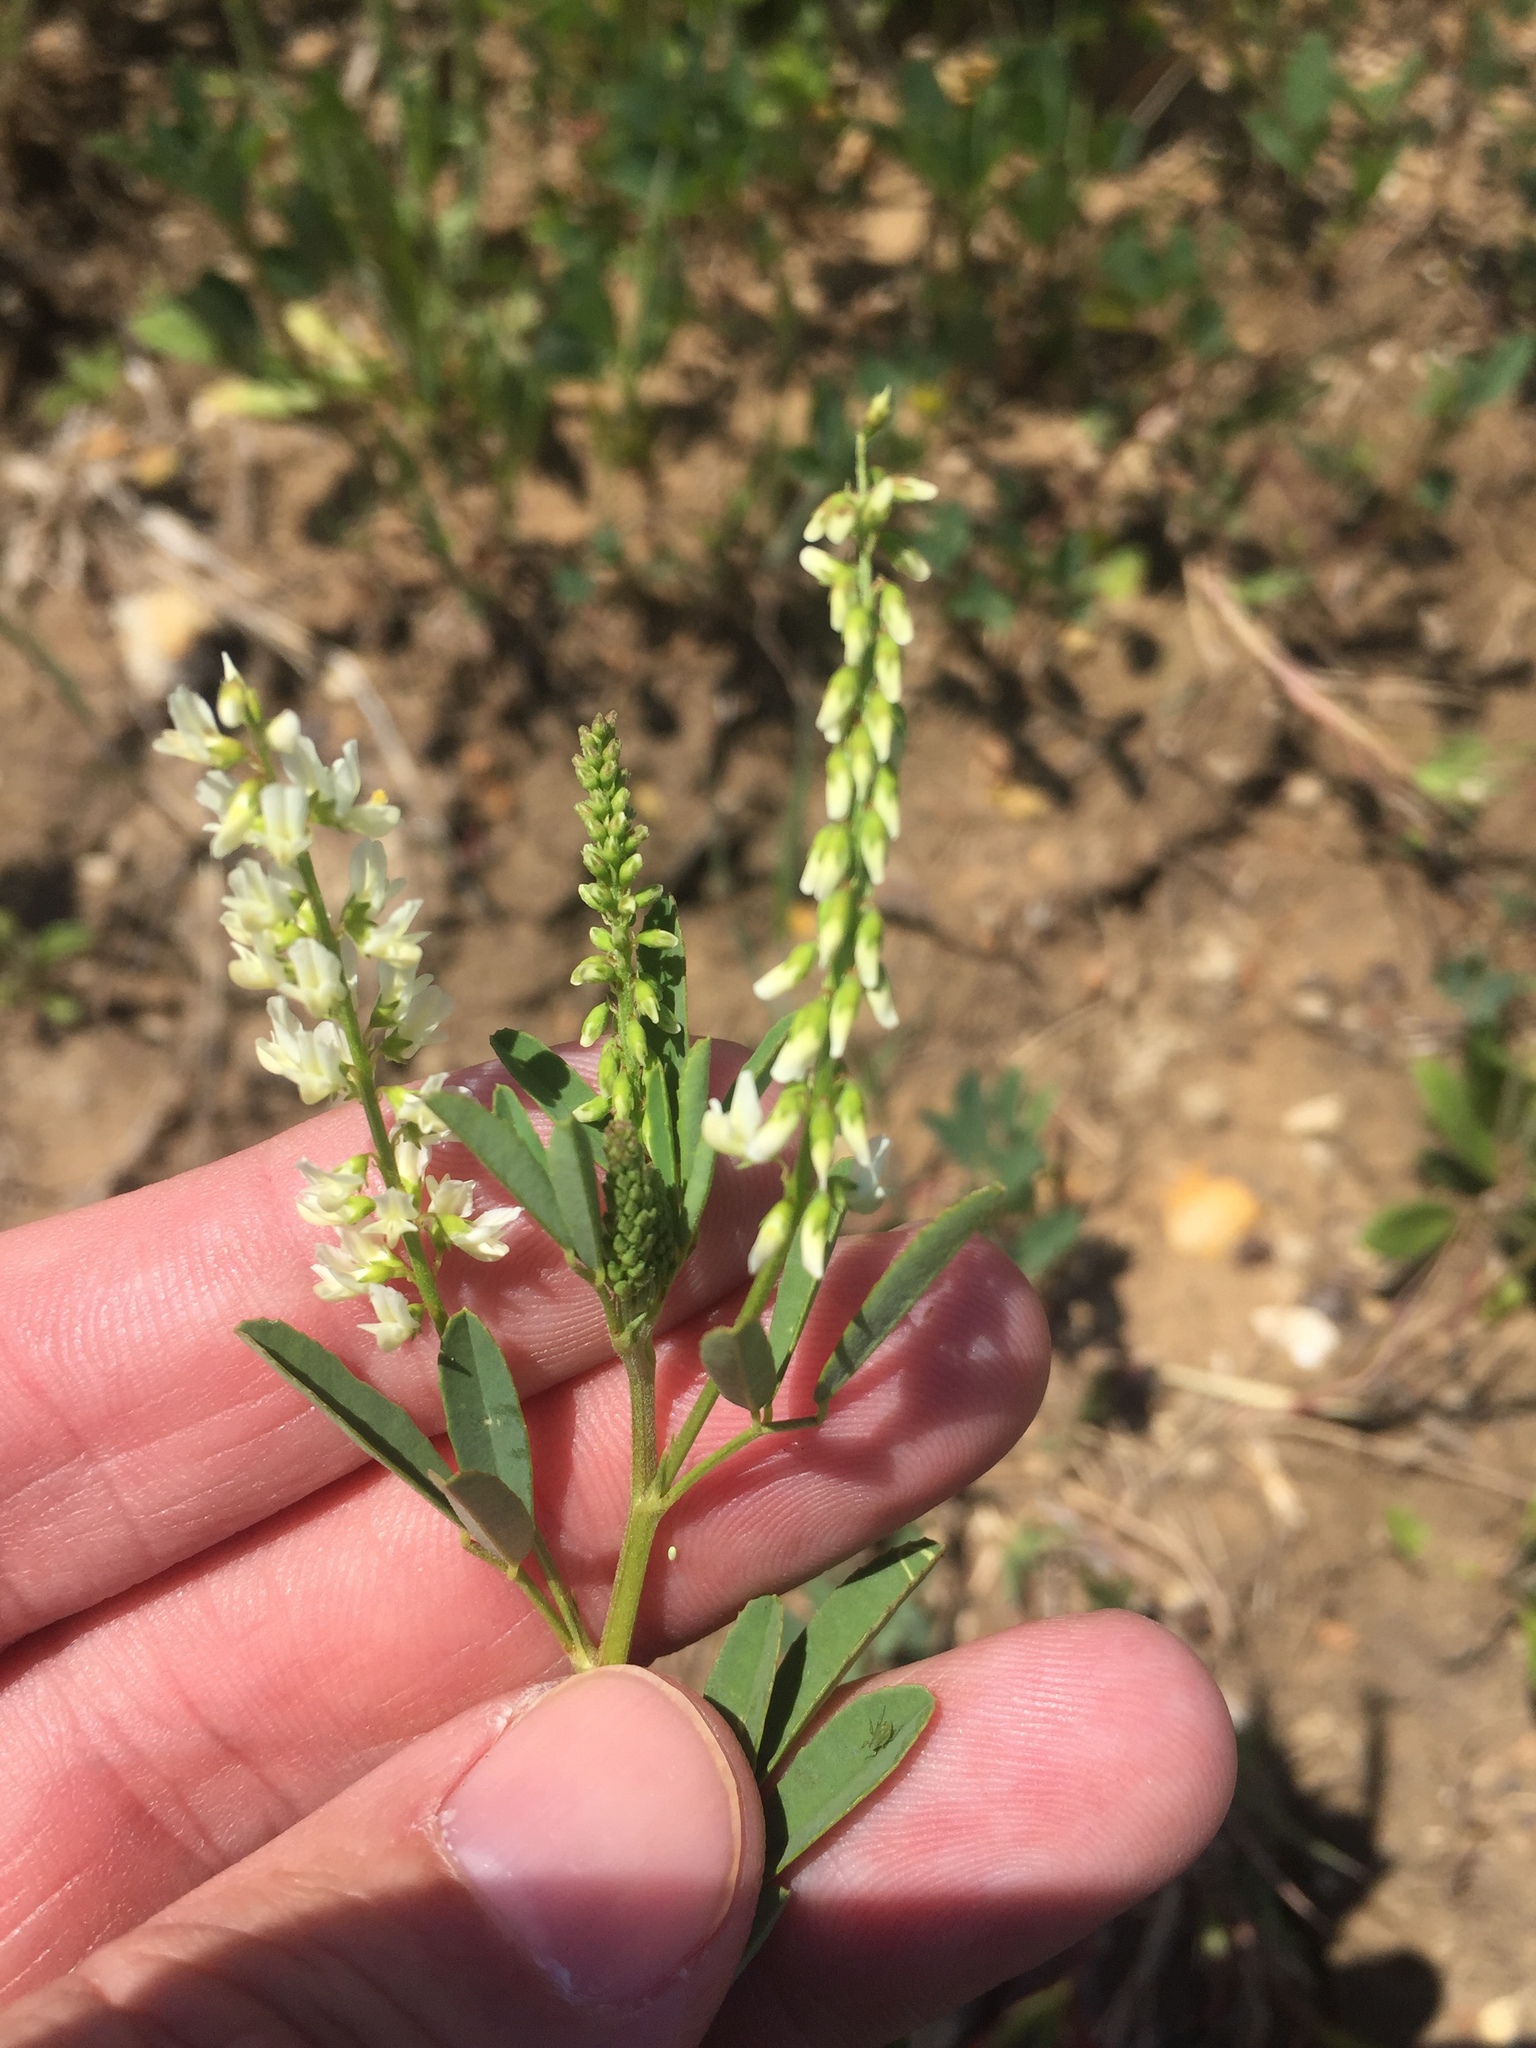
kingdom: Plantae
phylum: Tracheophyta
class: Magnoliopsida
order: Fabales
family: Fabaceae
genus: Melilotus
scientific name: Melilotus albus
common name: White melilot
